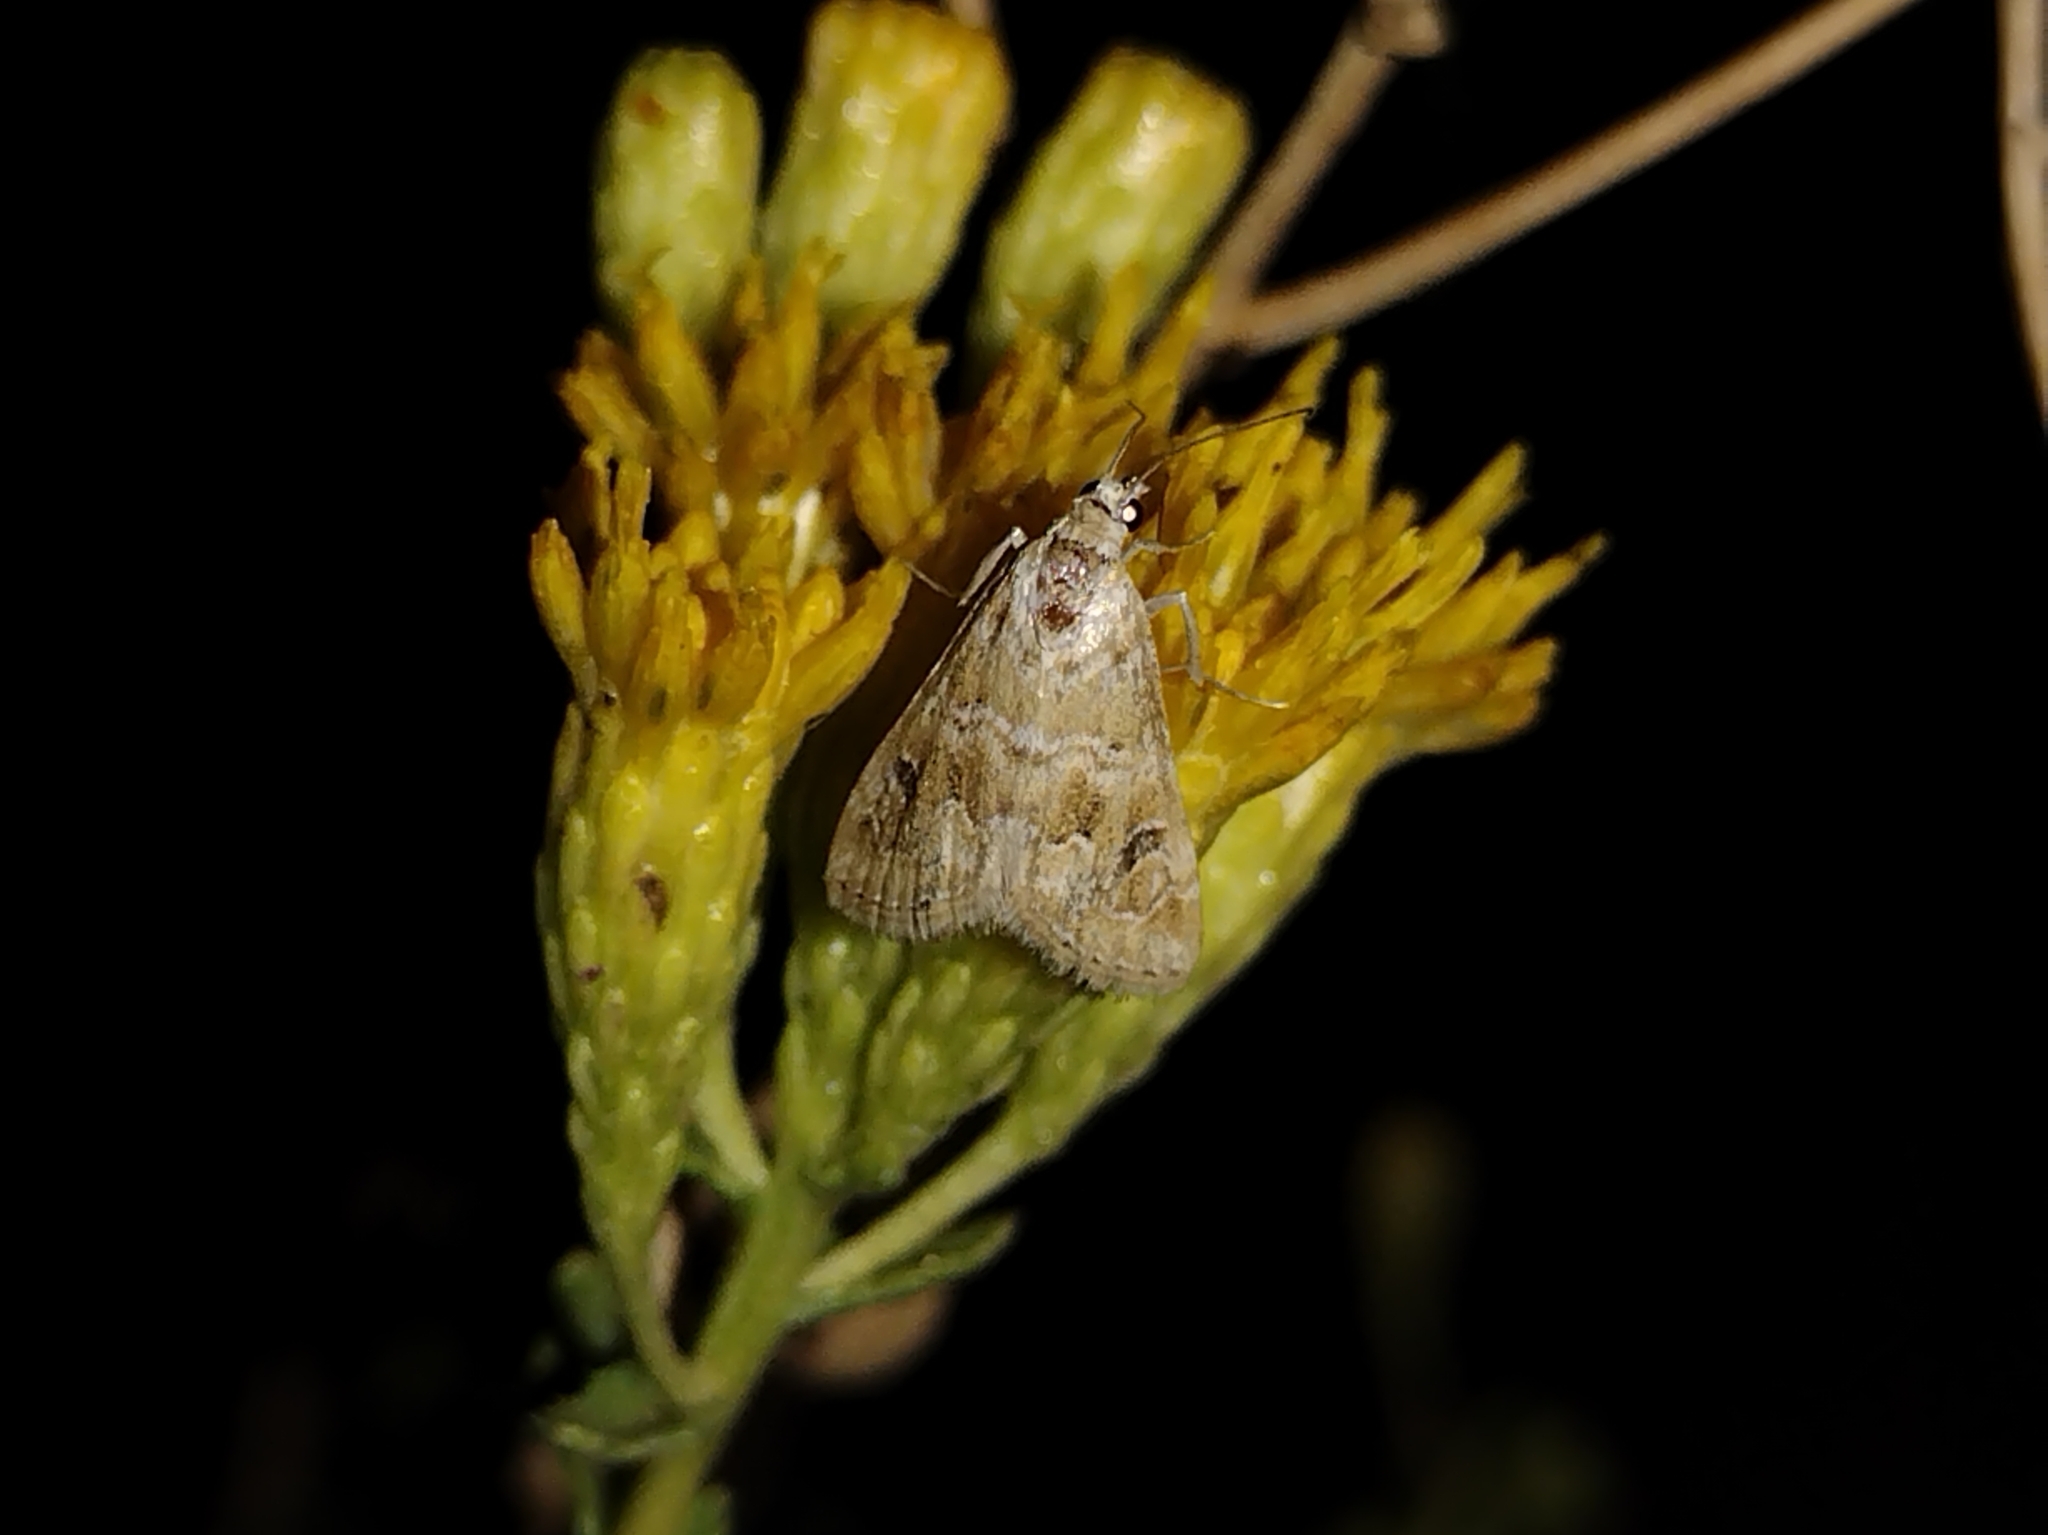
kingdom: Animalia
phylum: Arthropoda
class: Insecta
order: Lepidoptera
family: Crambidae
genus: Hellula
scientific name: Hellula rogatalis
